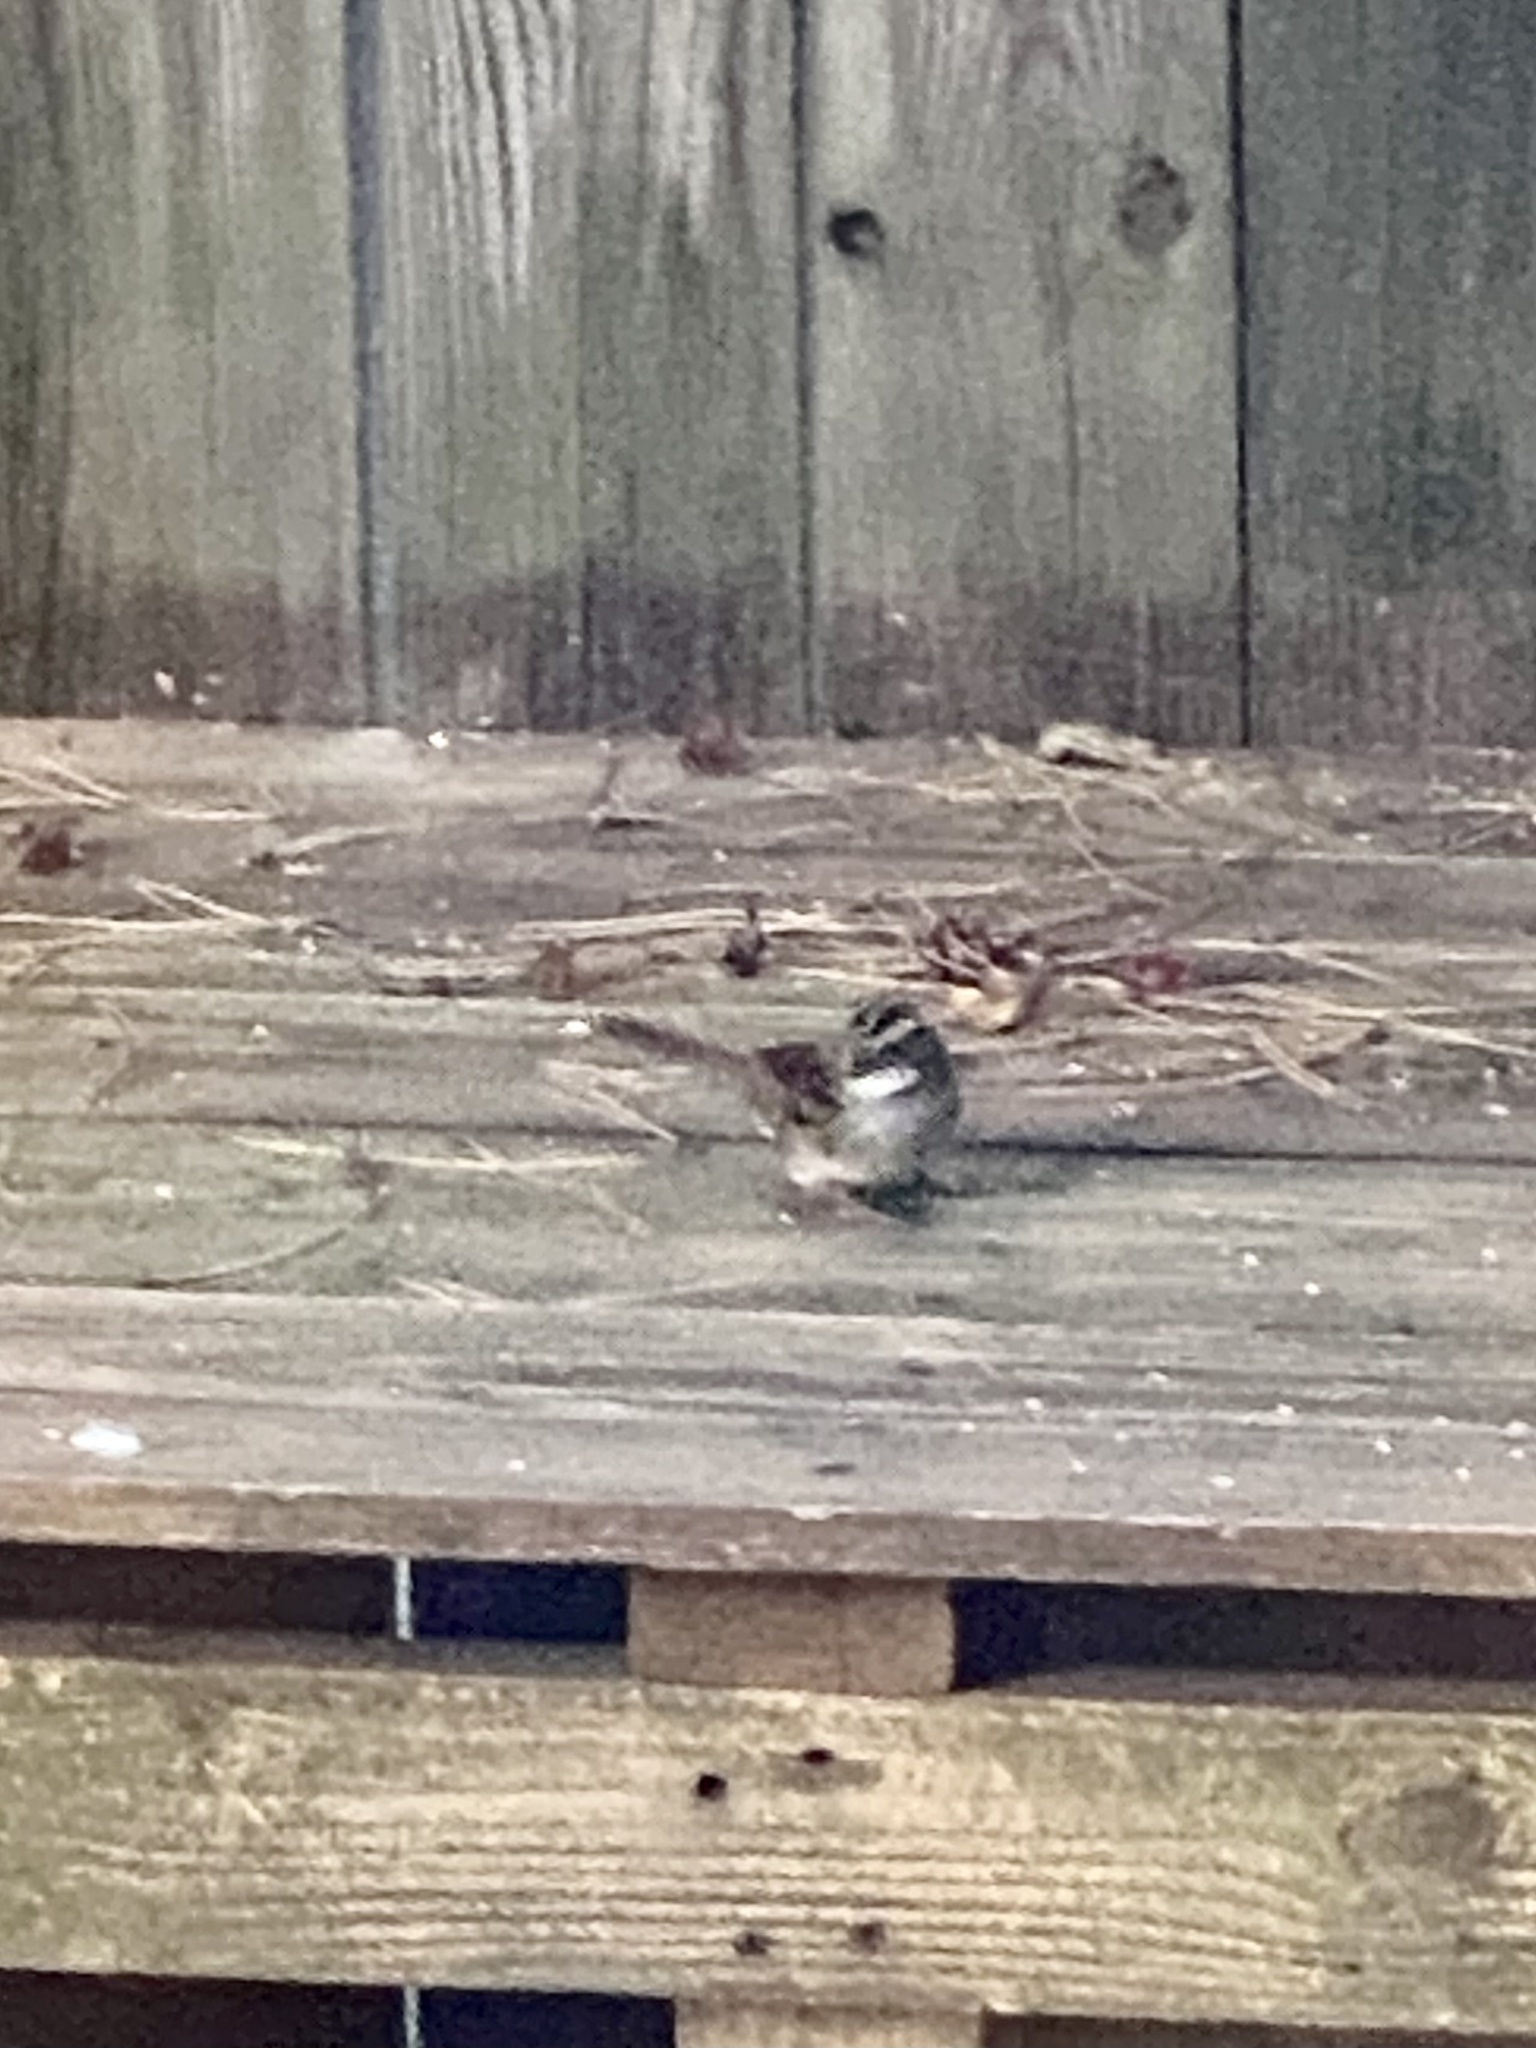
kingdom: Animalia
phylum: Chordata
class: Aves
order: Passeriformes
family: Passerellidae
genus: Zonotrichia
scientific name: Zonotrichia albicollis
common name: White-throated sparrow
